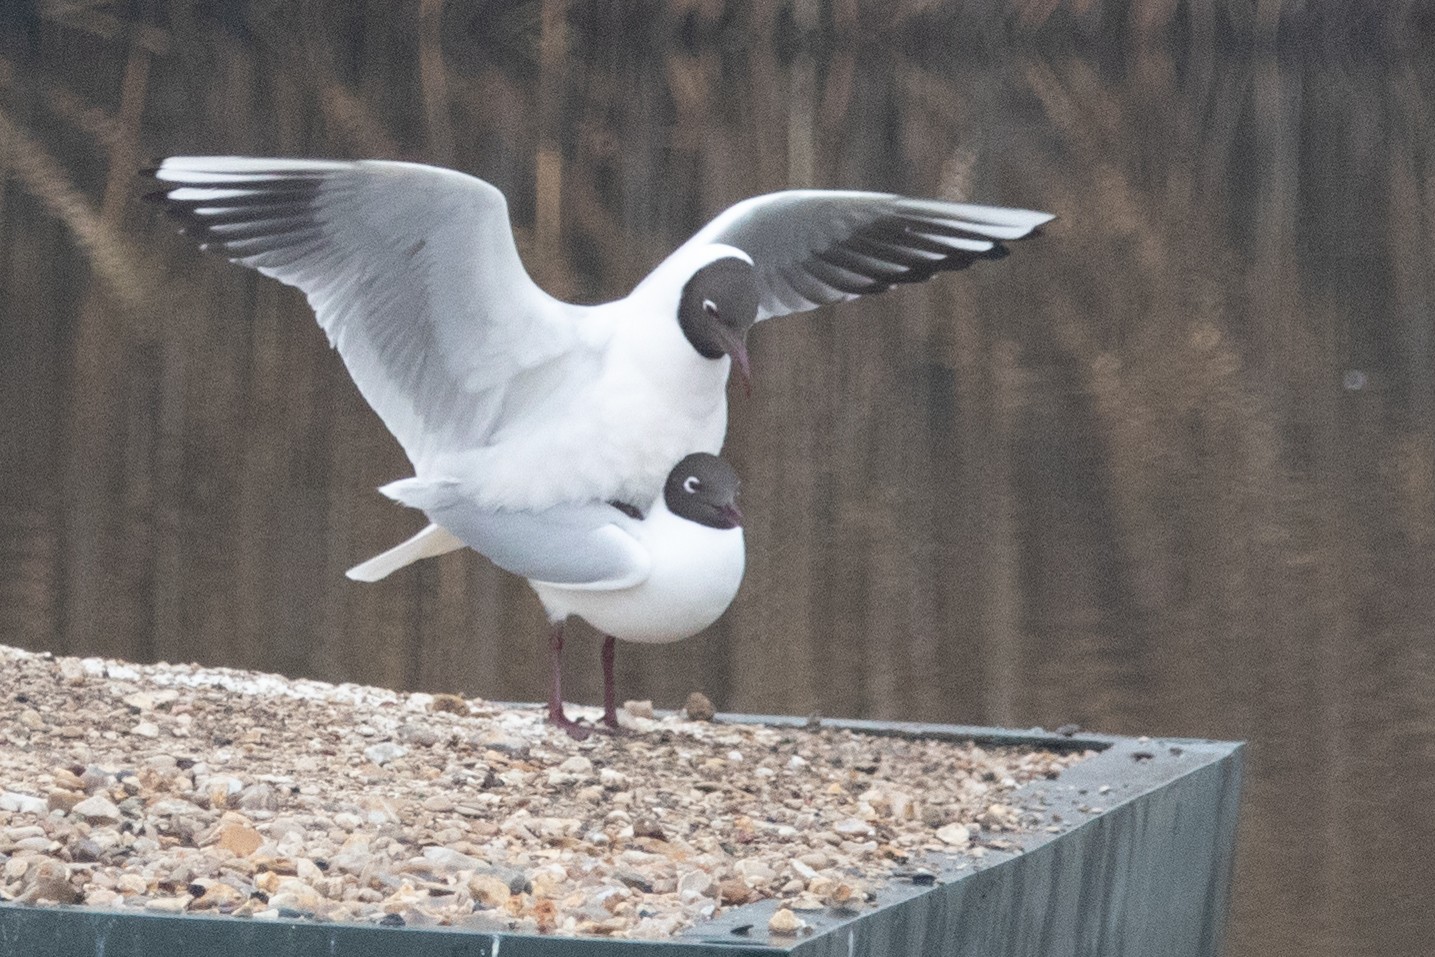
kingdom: Animalia
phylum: Chordata
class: Aves
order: Charadriiformes
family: Laridae
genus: Chroicocephalus
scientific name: Chroicocephalus ridibundus
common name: Black-headed gull
